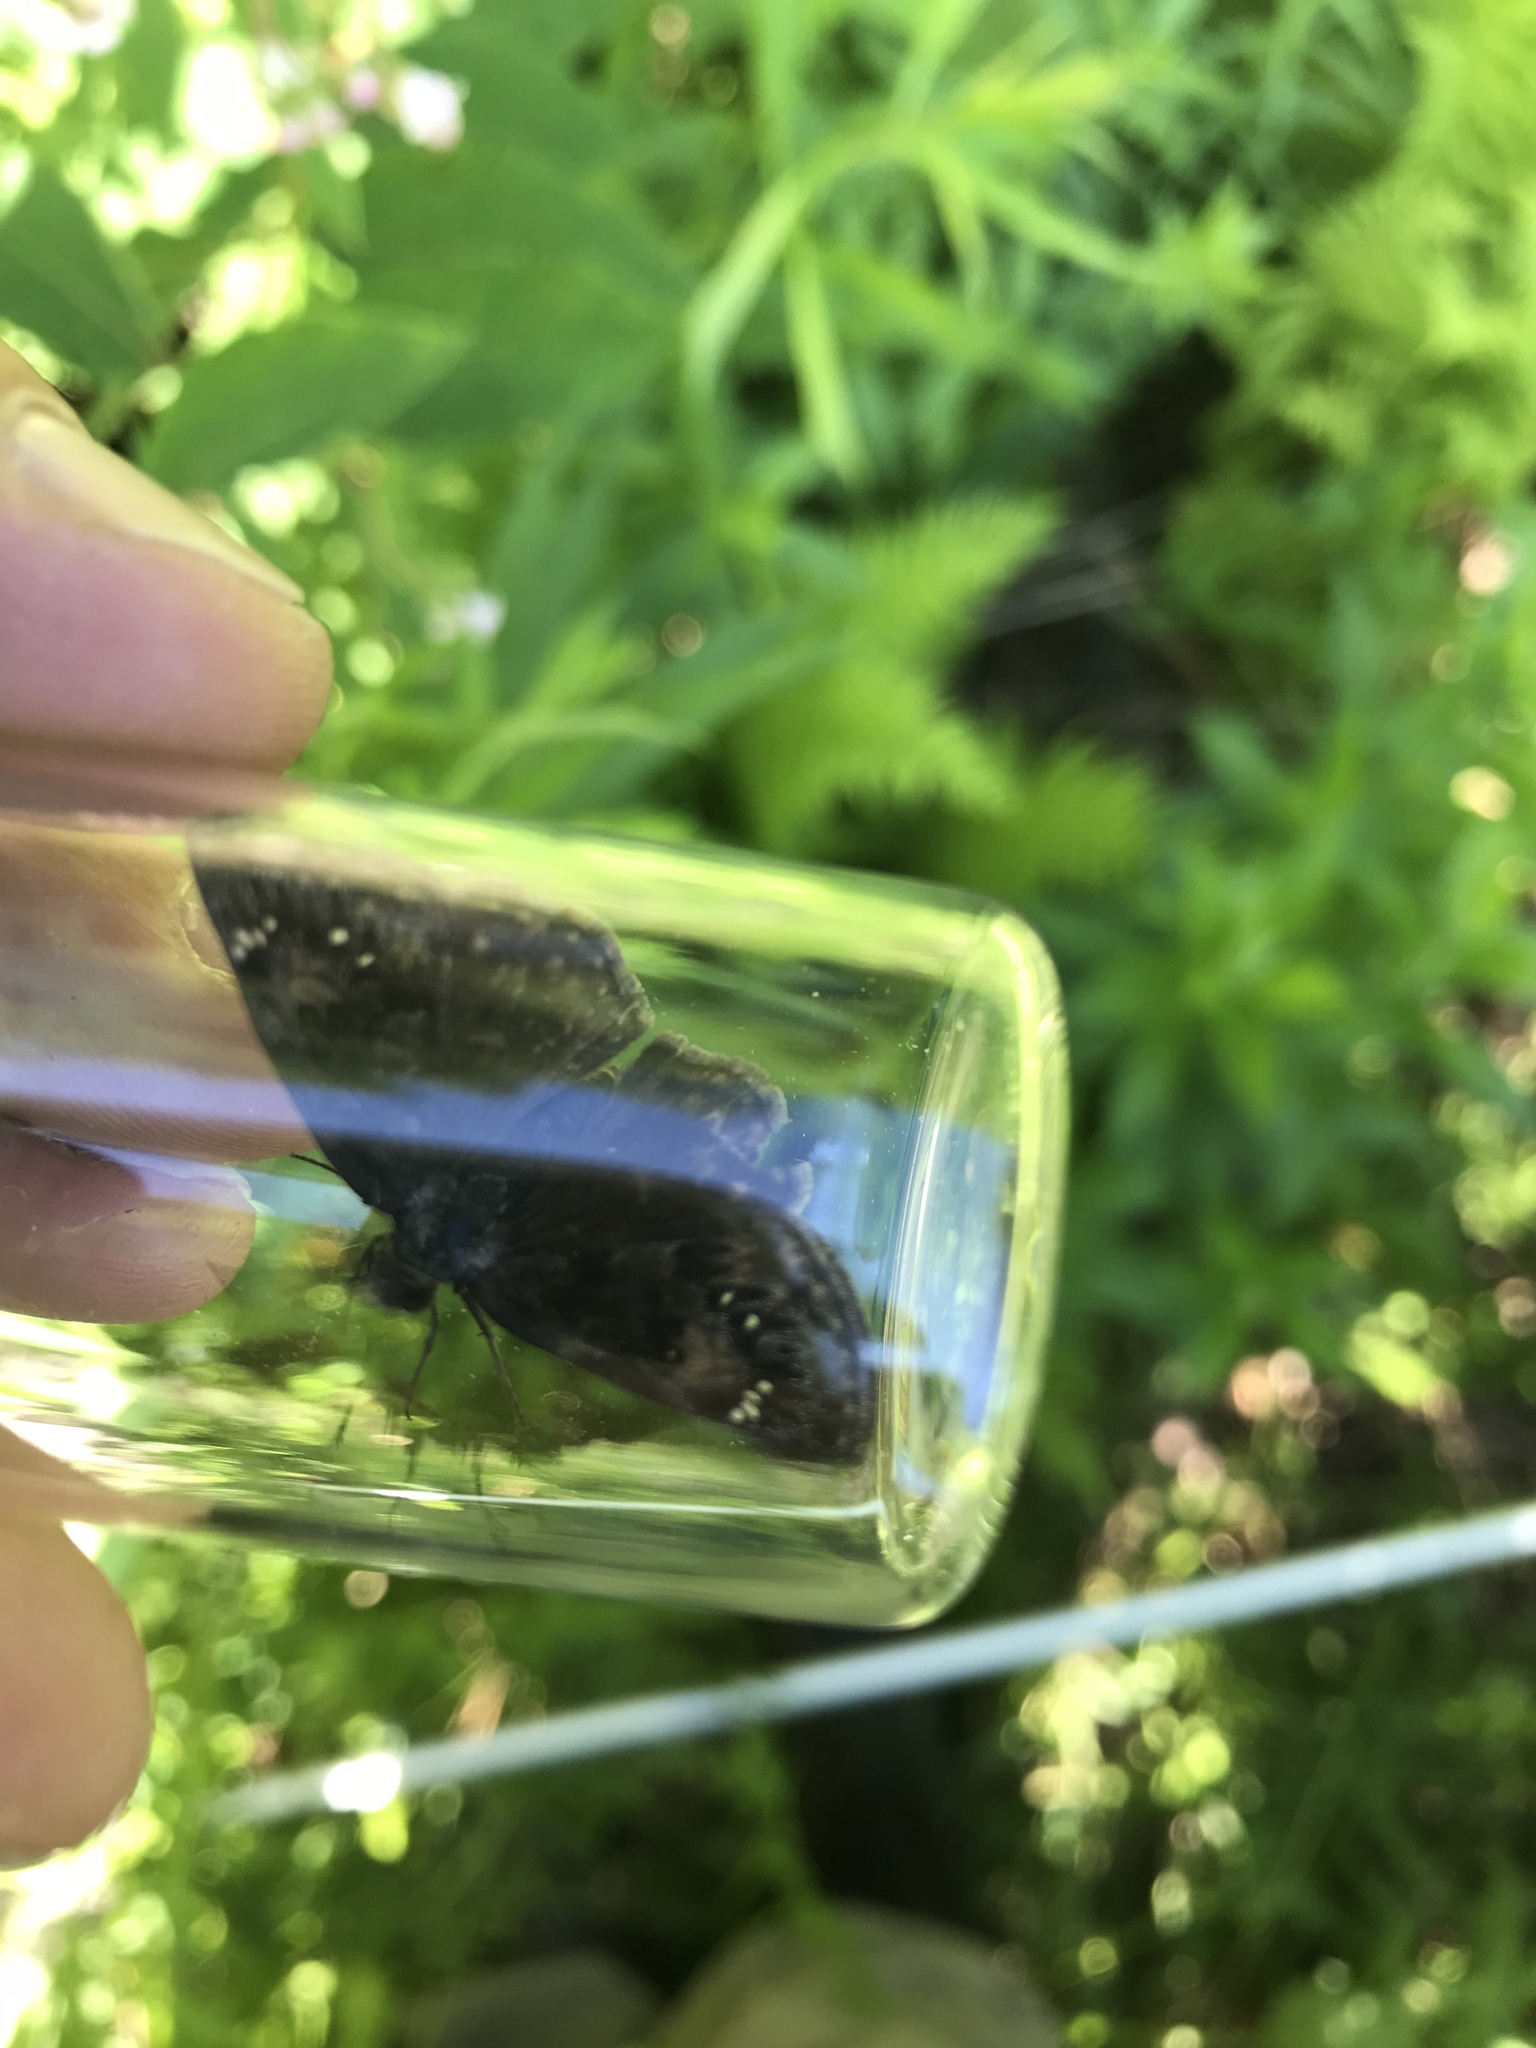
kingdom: Animalia
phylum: Arthropoda
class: Insecta
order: Lepidoptera
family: Hesperiidae
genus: Erynnis
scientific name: Erynnis baptisiae
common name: Wild indigo duskywing
